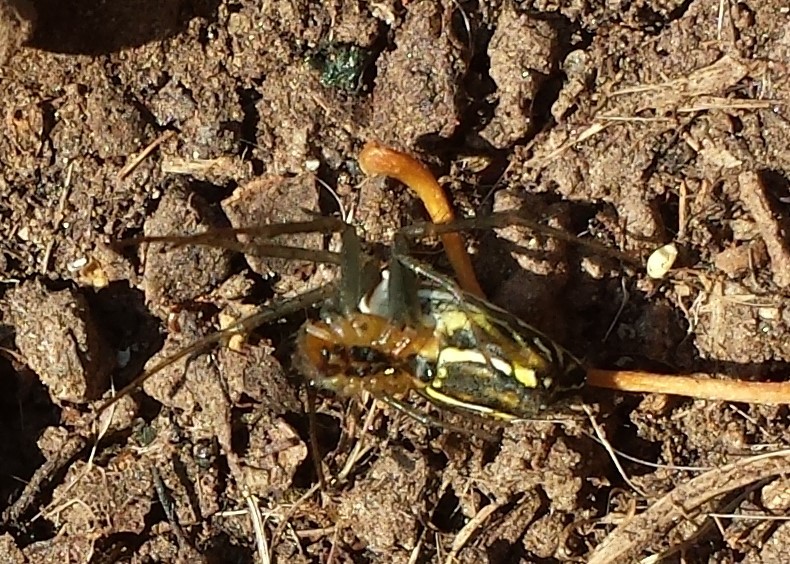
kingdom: Animalia
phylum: Arthropoda
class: Arachnida
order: Araneae
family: Araneidae
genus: Mecynogea
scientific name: Mecynogea lemniscata
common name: Orb weavers
